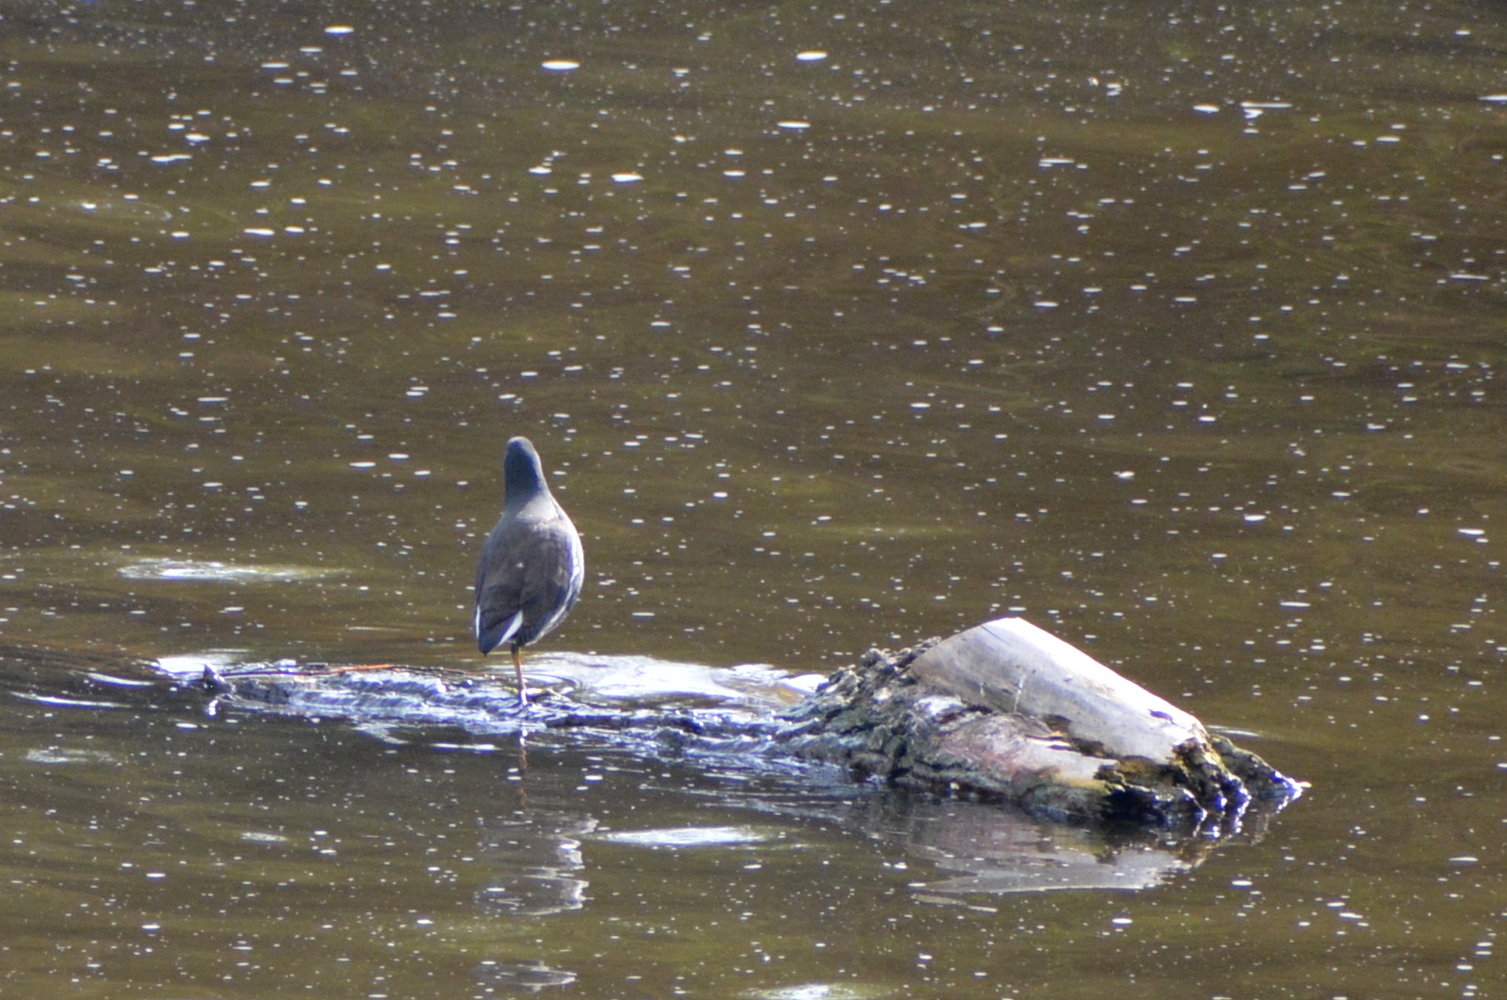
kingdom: Animalia
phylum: Chordata
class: Aves
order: Gruiformes
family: Rallidae
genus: Gallinula
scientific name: Gallinula chloropus
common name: Common moorhen
